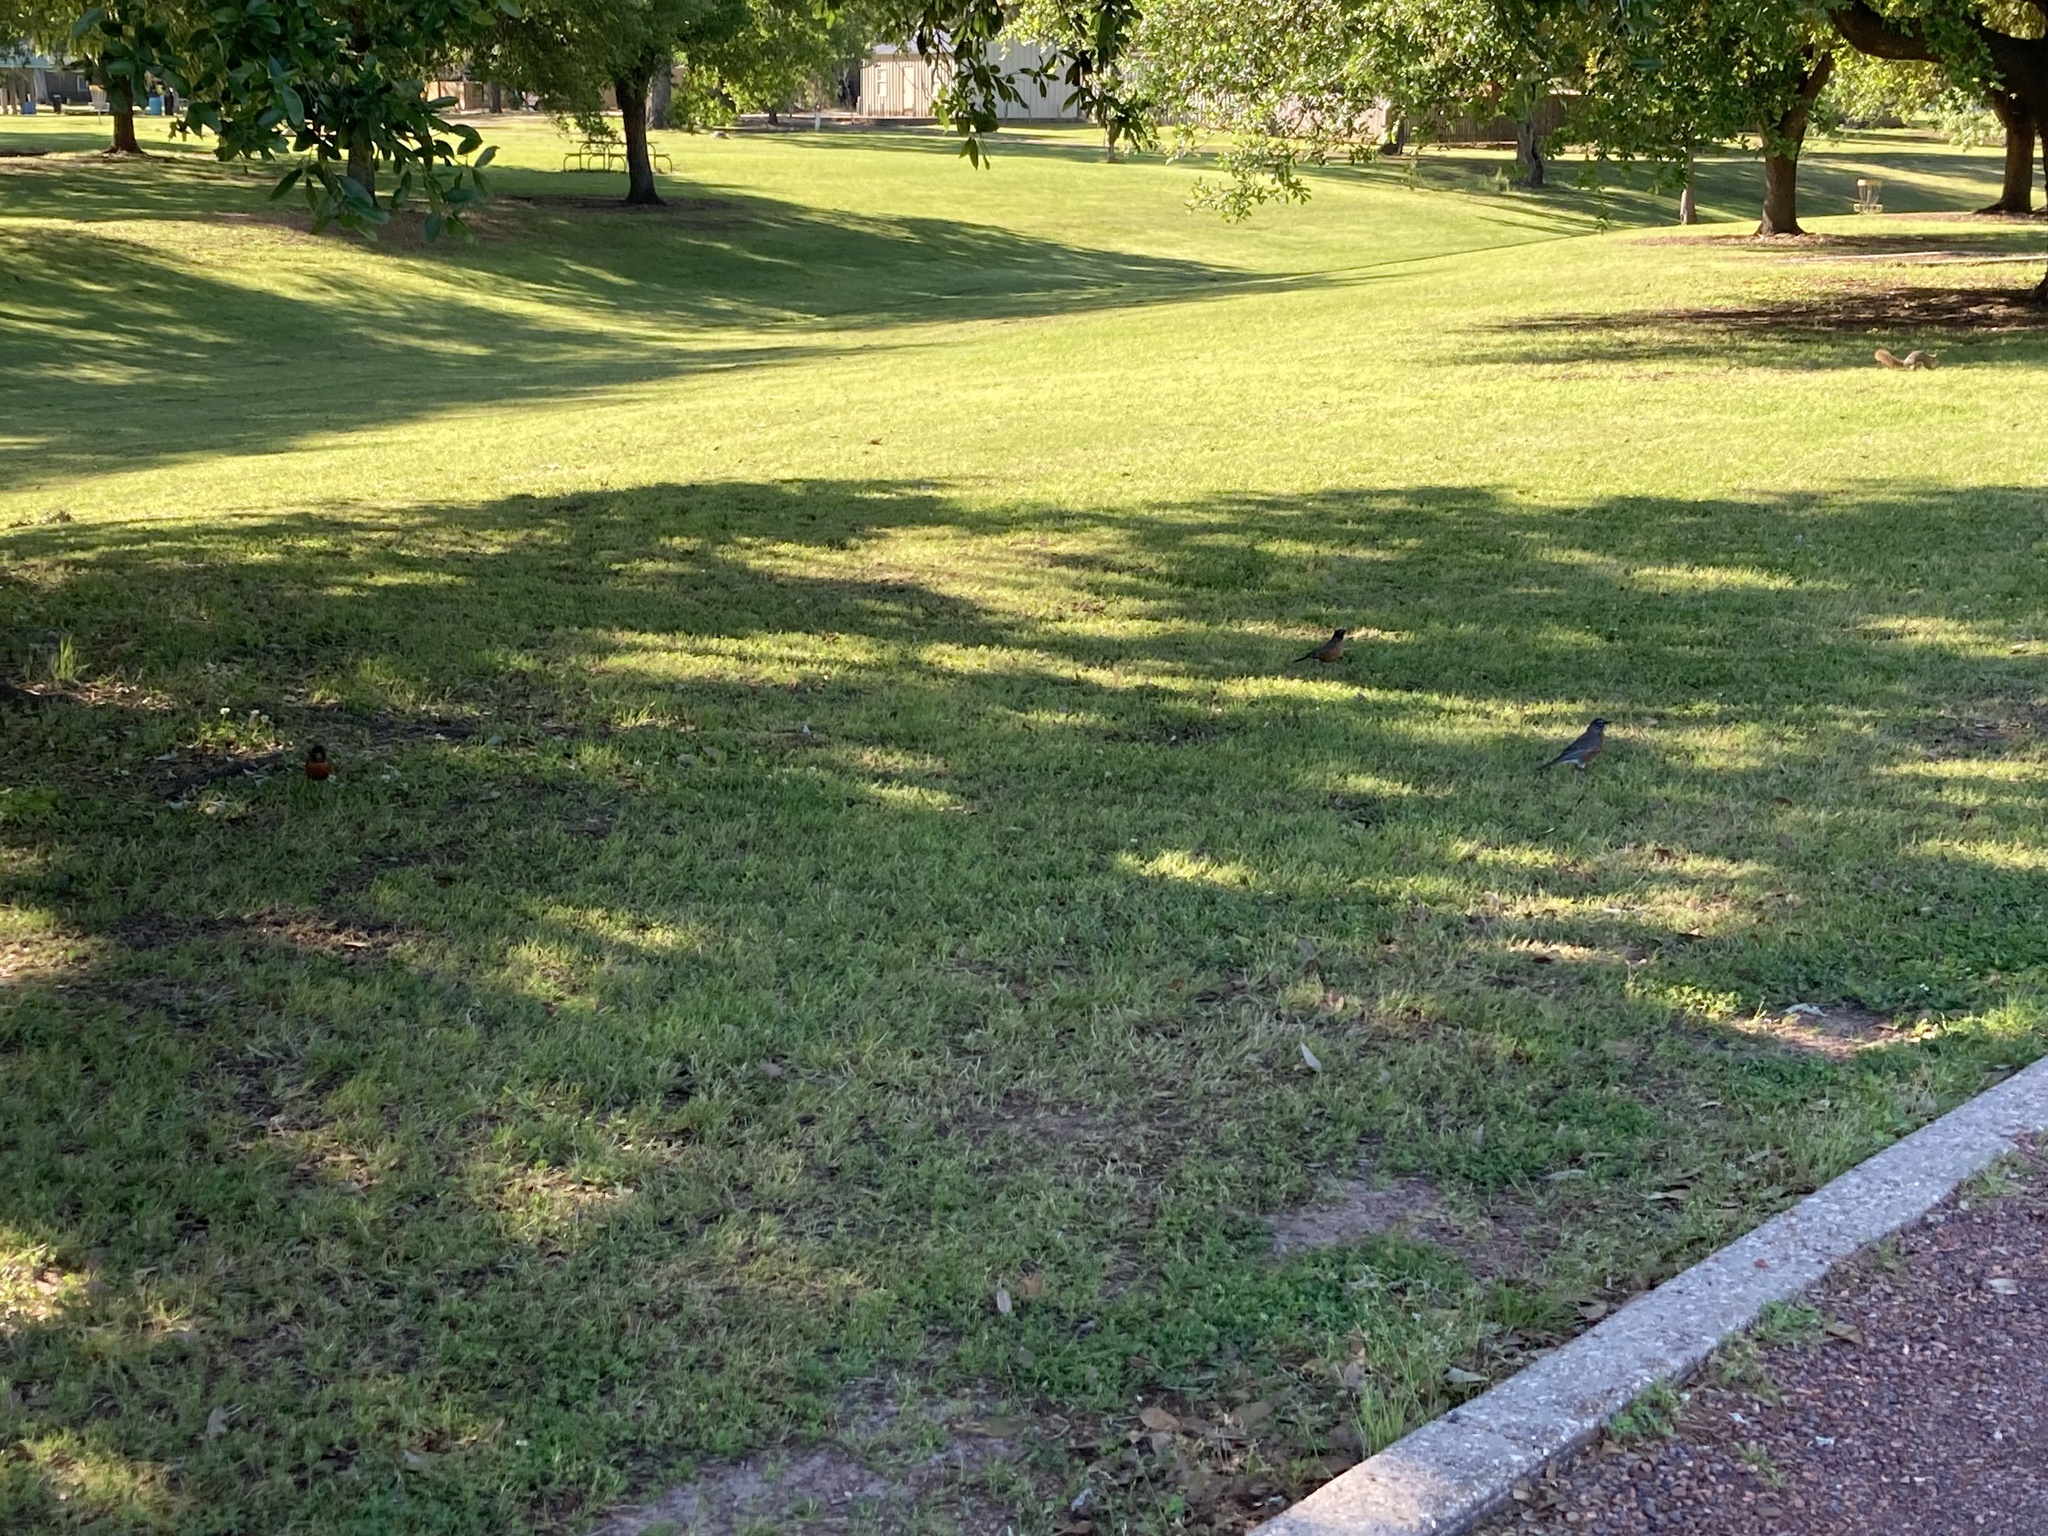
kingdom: Animalia
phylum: Chordata
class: Aves
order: Passeriformes
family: Turdidae
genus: Turdus
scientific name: Turdus migratorius
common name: American robin
